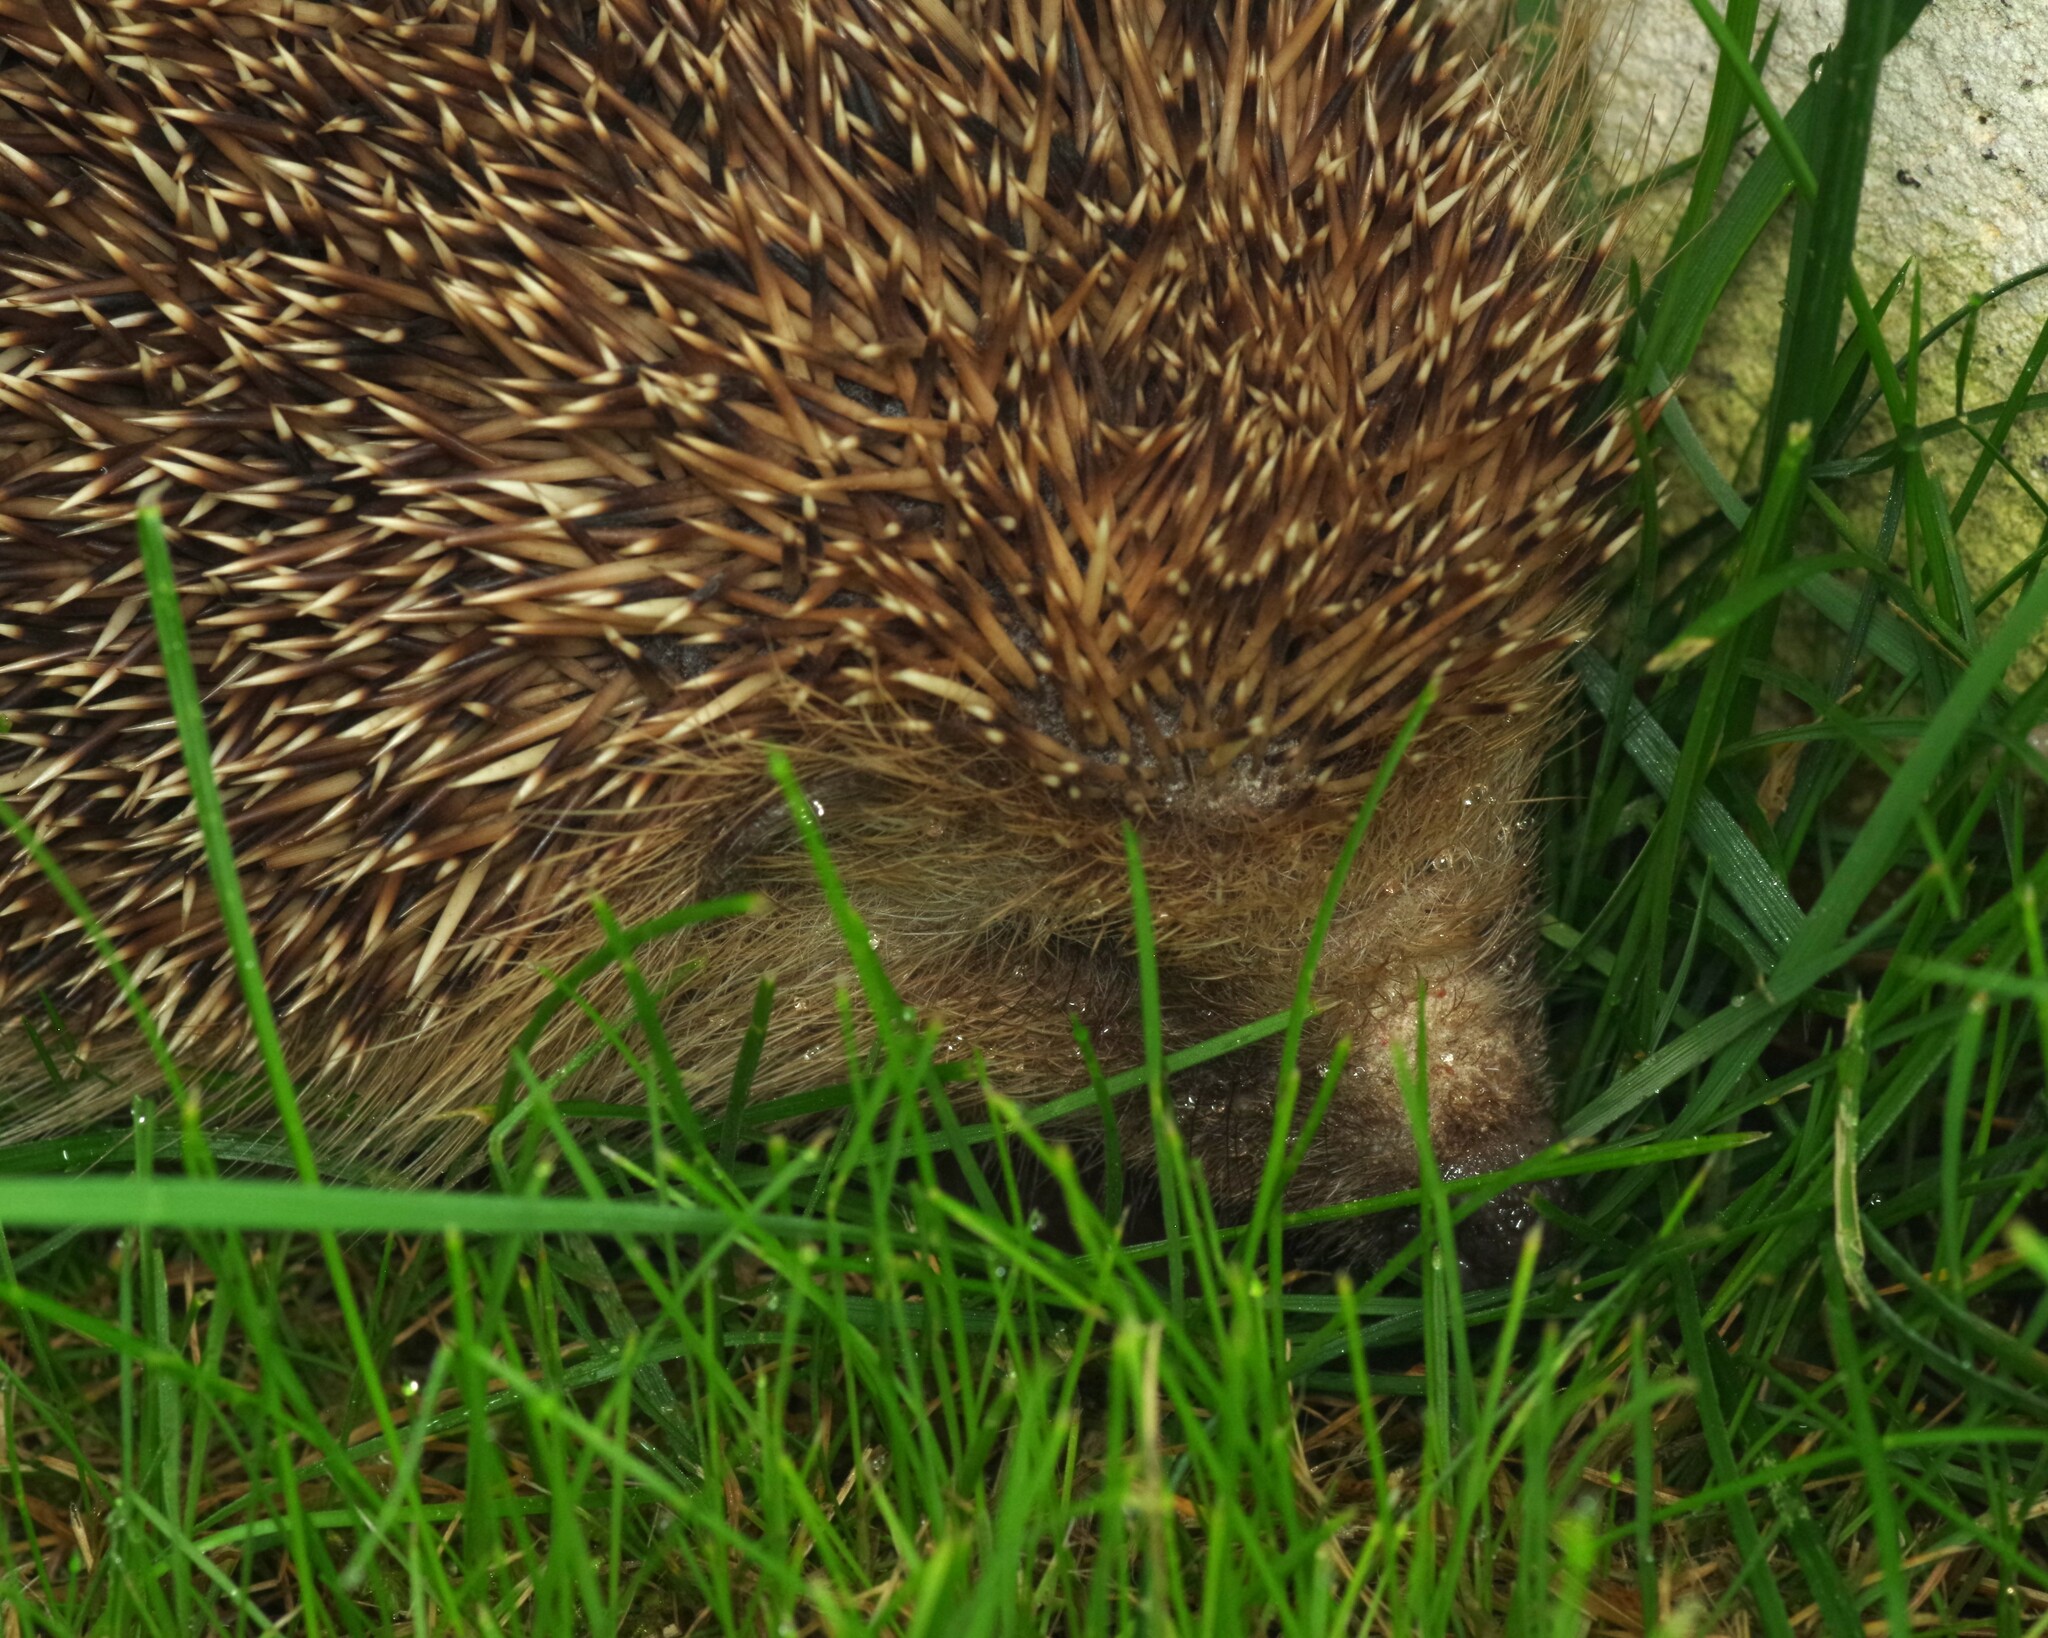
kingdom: Animalia
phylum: Chordata
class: Mammalia
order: Erinaceomorpha
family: Erinaceidae
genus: Erinaceus
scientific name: Erinaceus europaeus
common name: West european hedgehog
